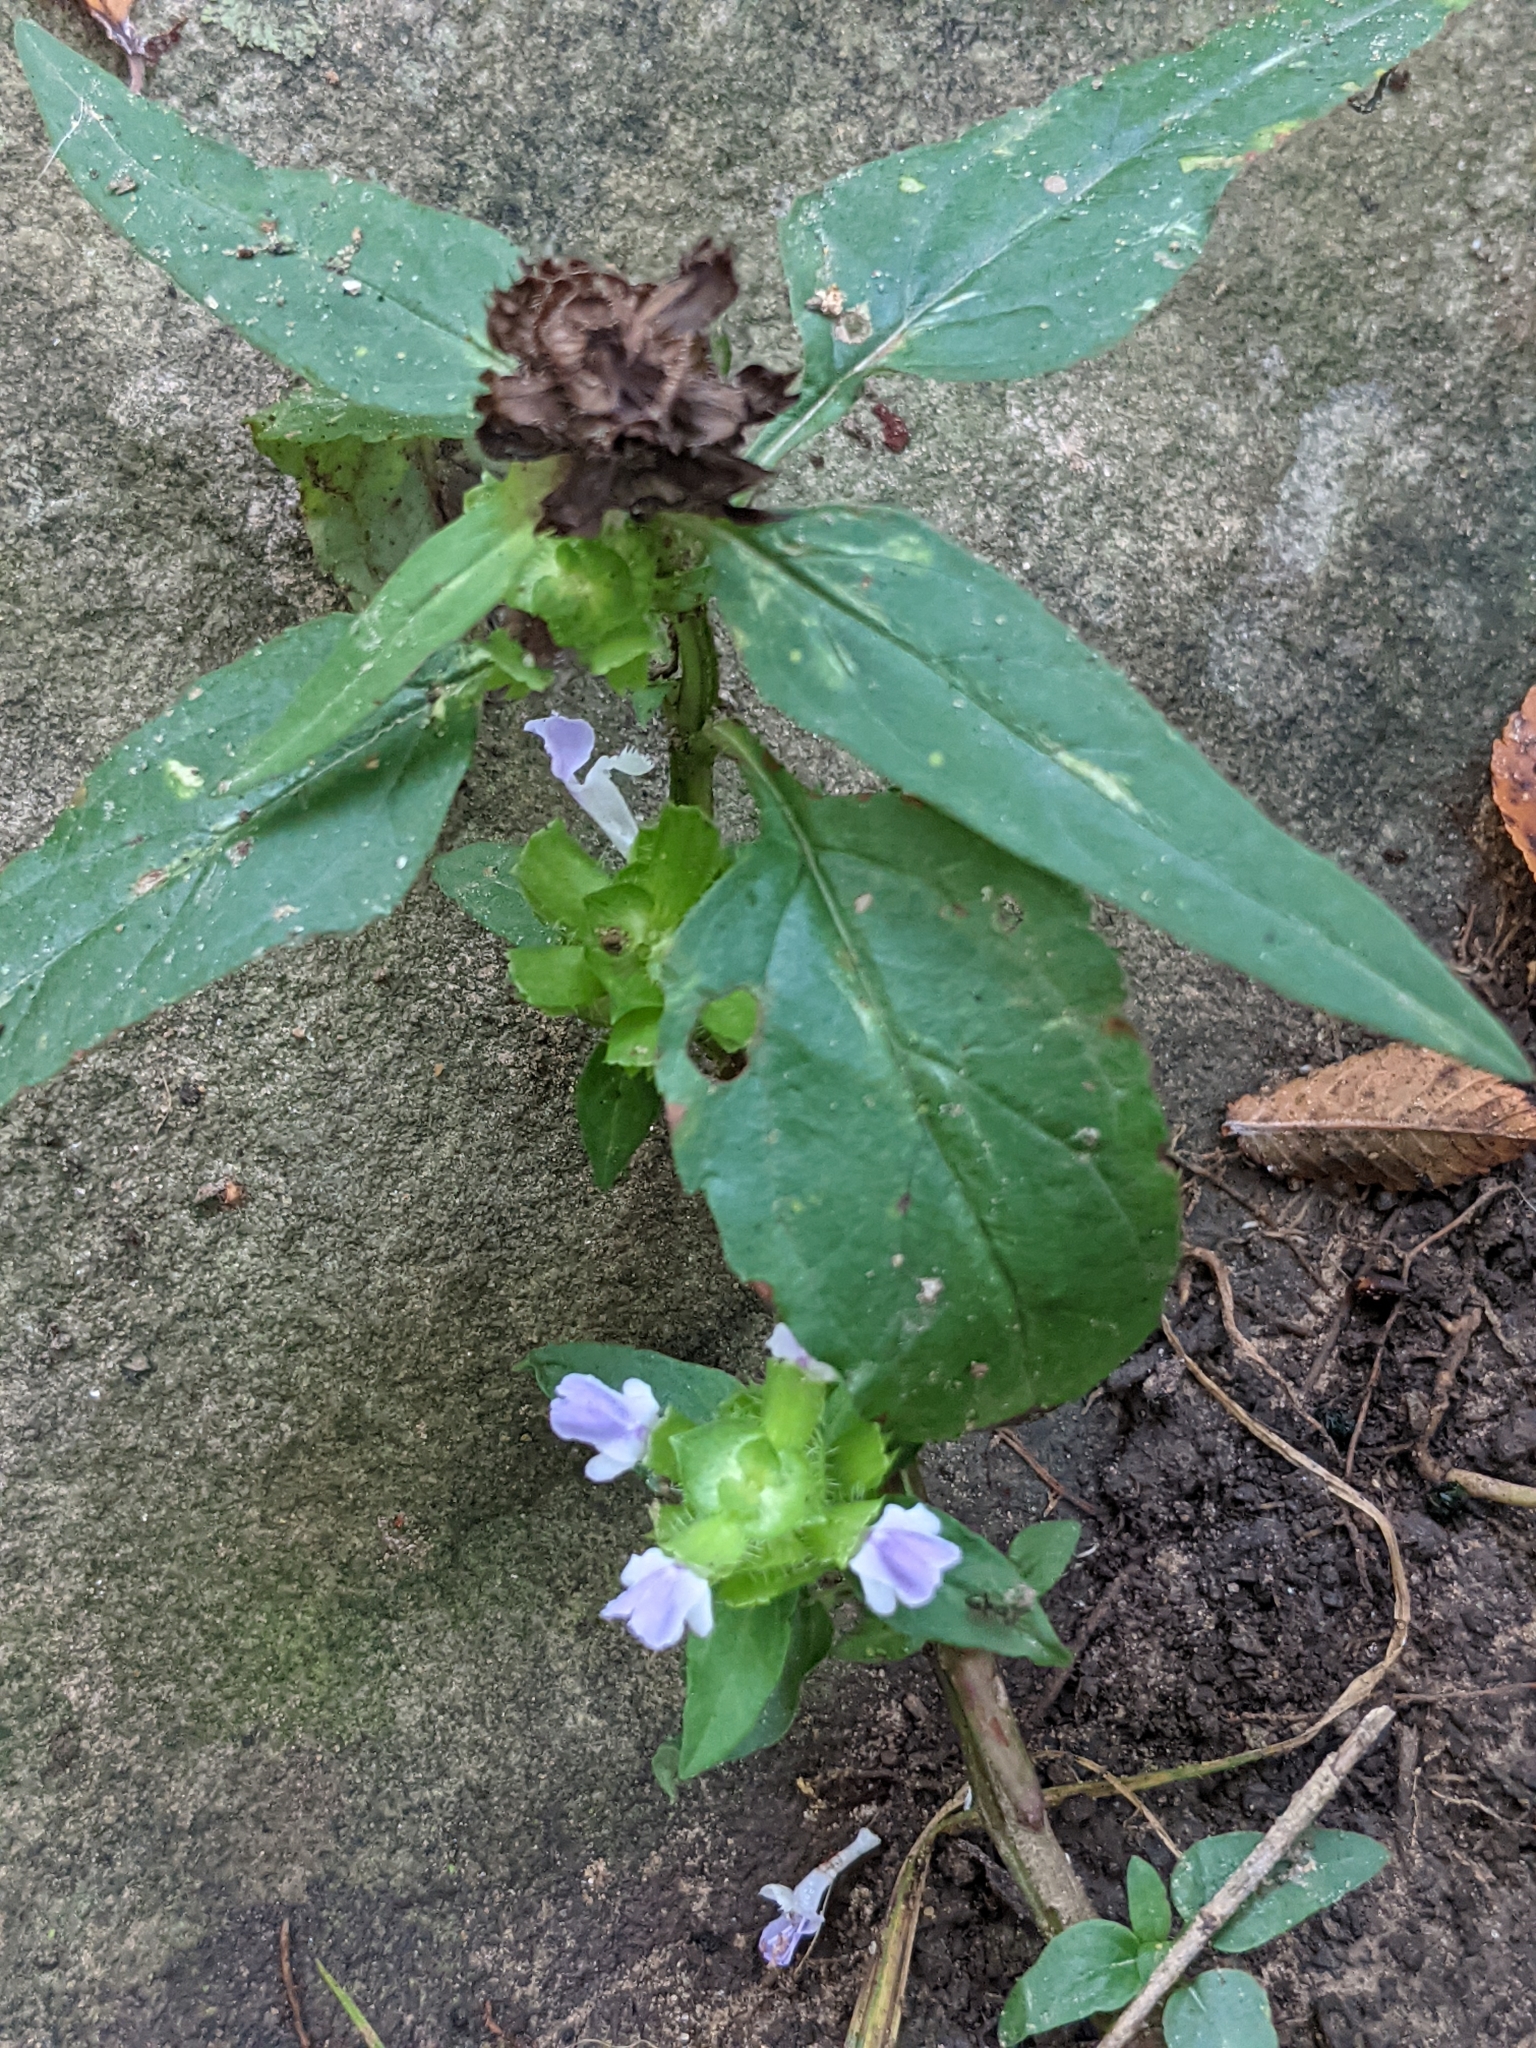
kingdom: Plantae
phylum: Tracheophyta
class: Magnoliopsida
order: Lamiales
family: Lamiaceae
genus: Prunella
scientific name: Prunella vulgaris
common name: Heal-all
